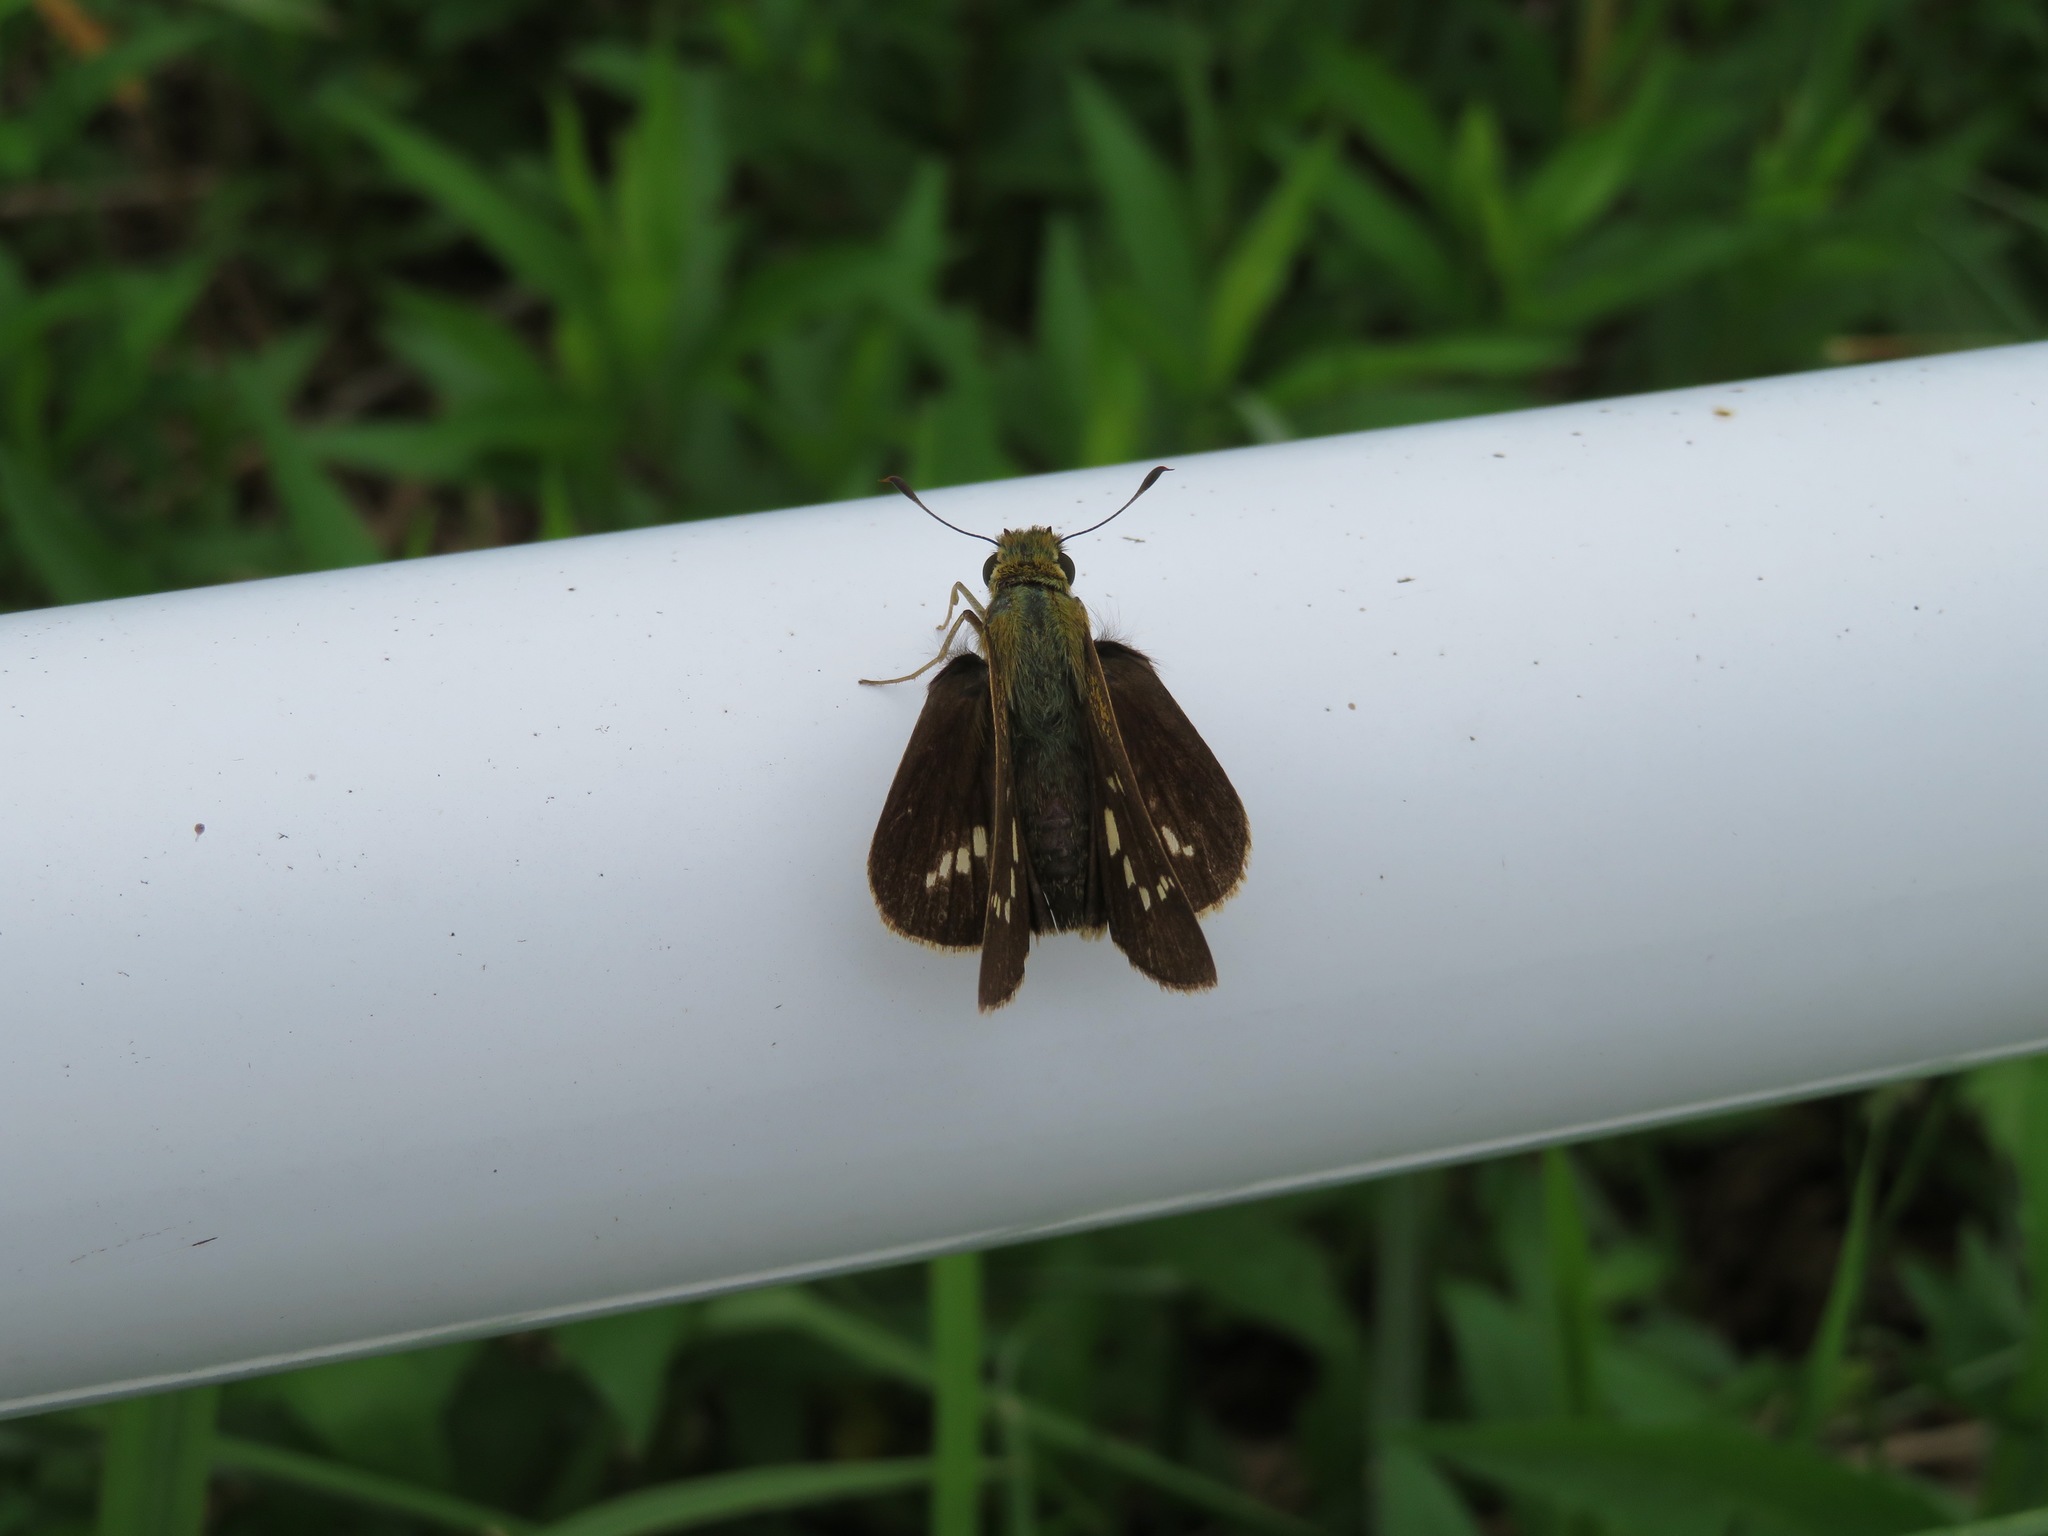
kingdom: Animalia
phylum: Arthropoda
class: Insecta
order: Lepidoptera
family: Hesperiidae
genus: Parnara
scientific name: Parnara guttatus
